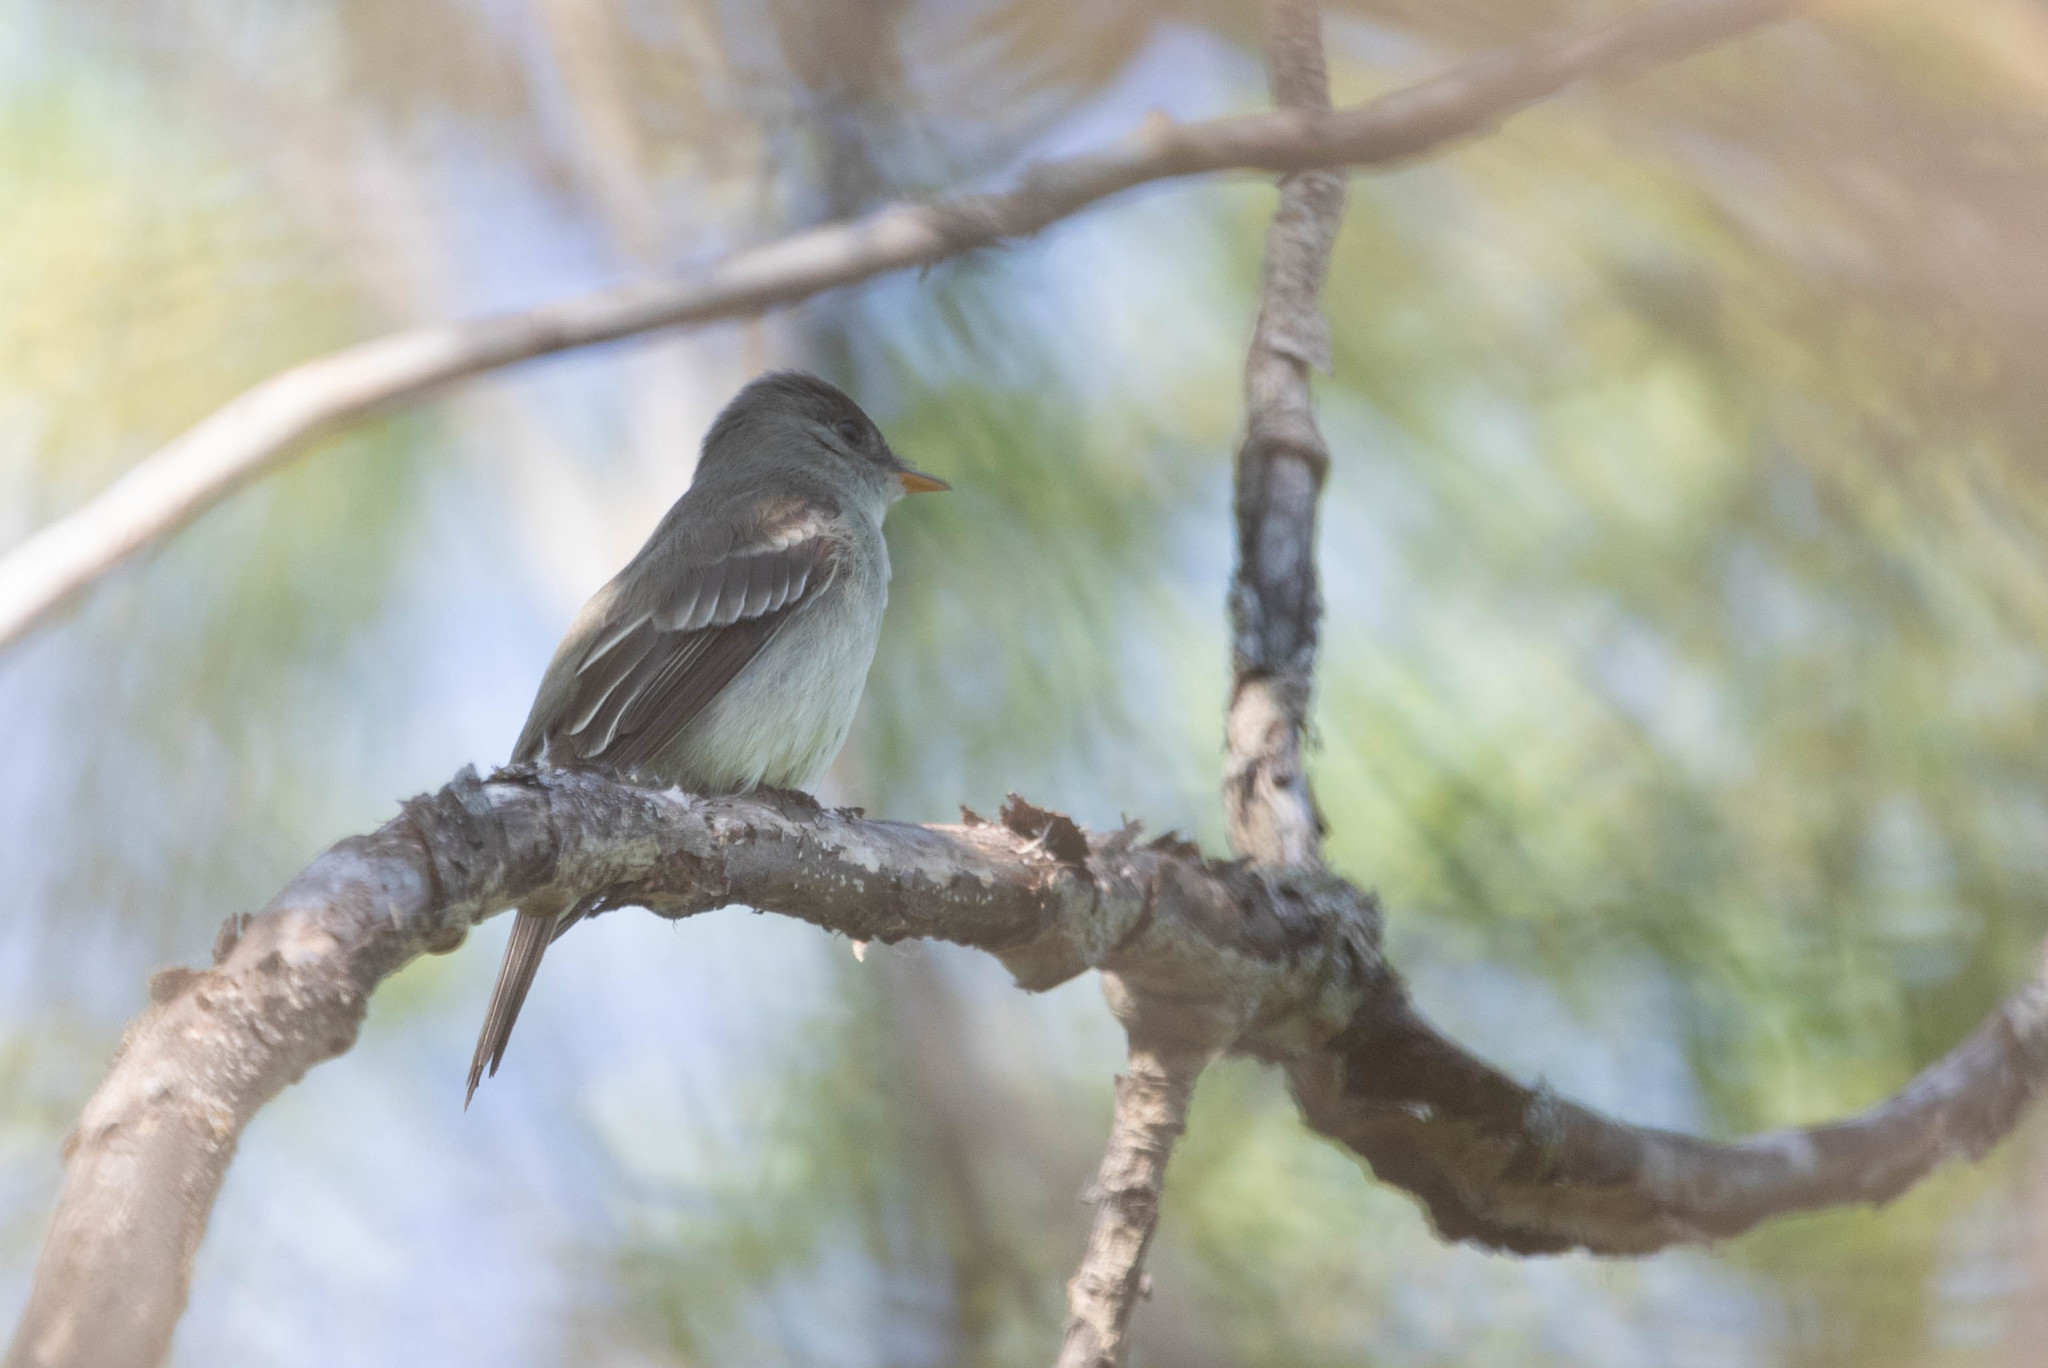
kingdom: Animalia
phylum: Chordata
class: Aves
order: Passeriformes
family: Tyrannidae
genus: Contopus
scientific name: Contopus virens
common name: Eastern wood-pewee
